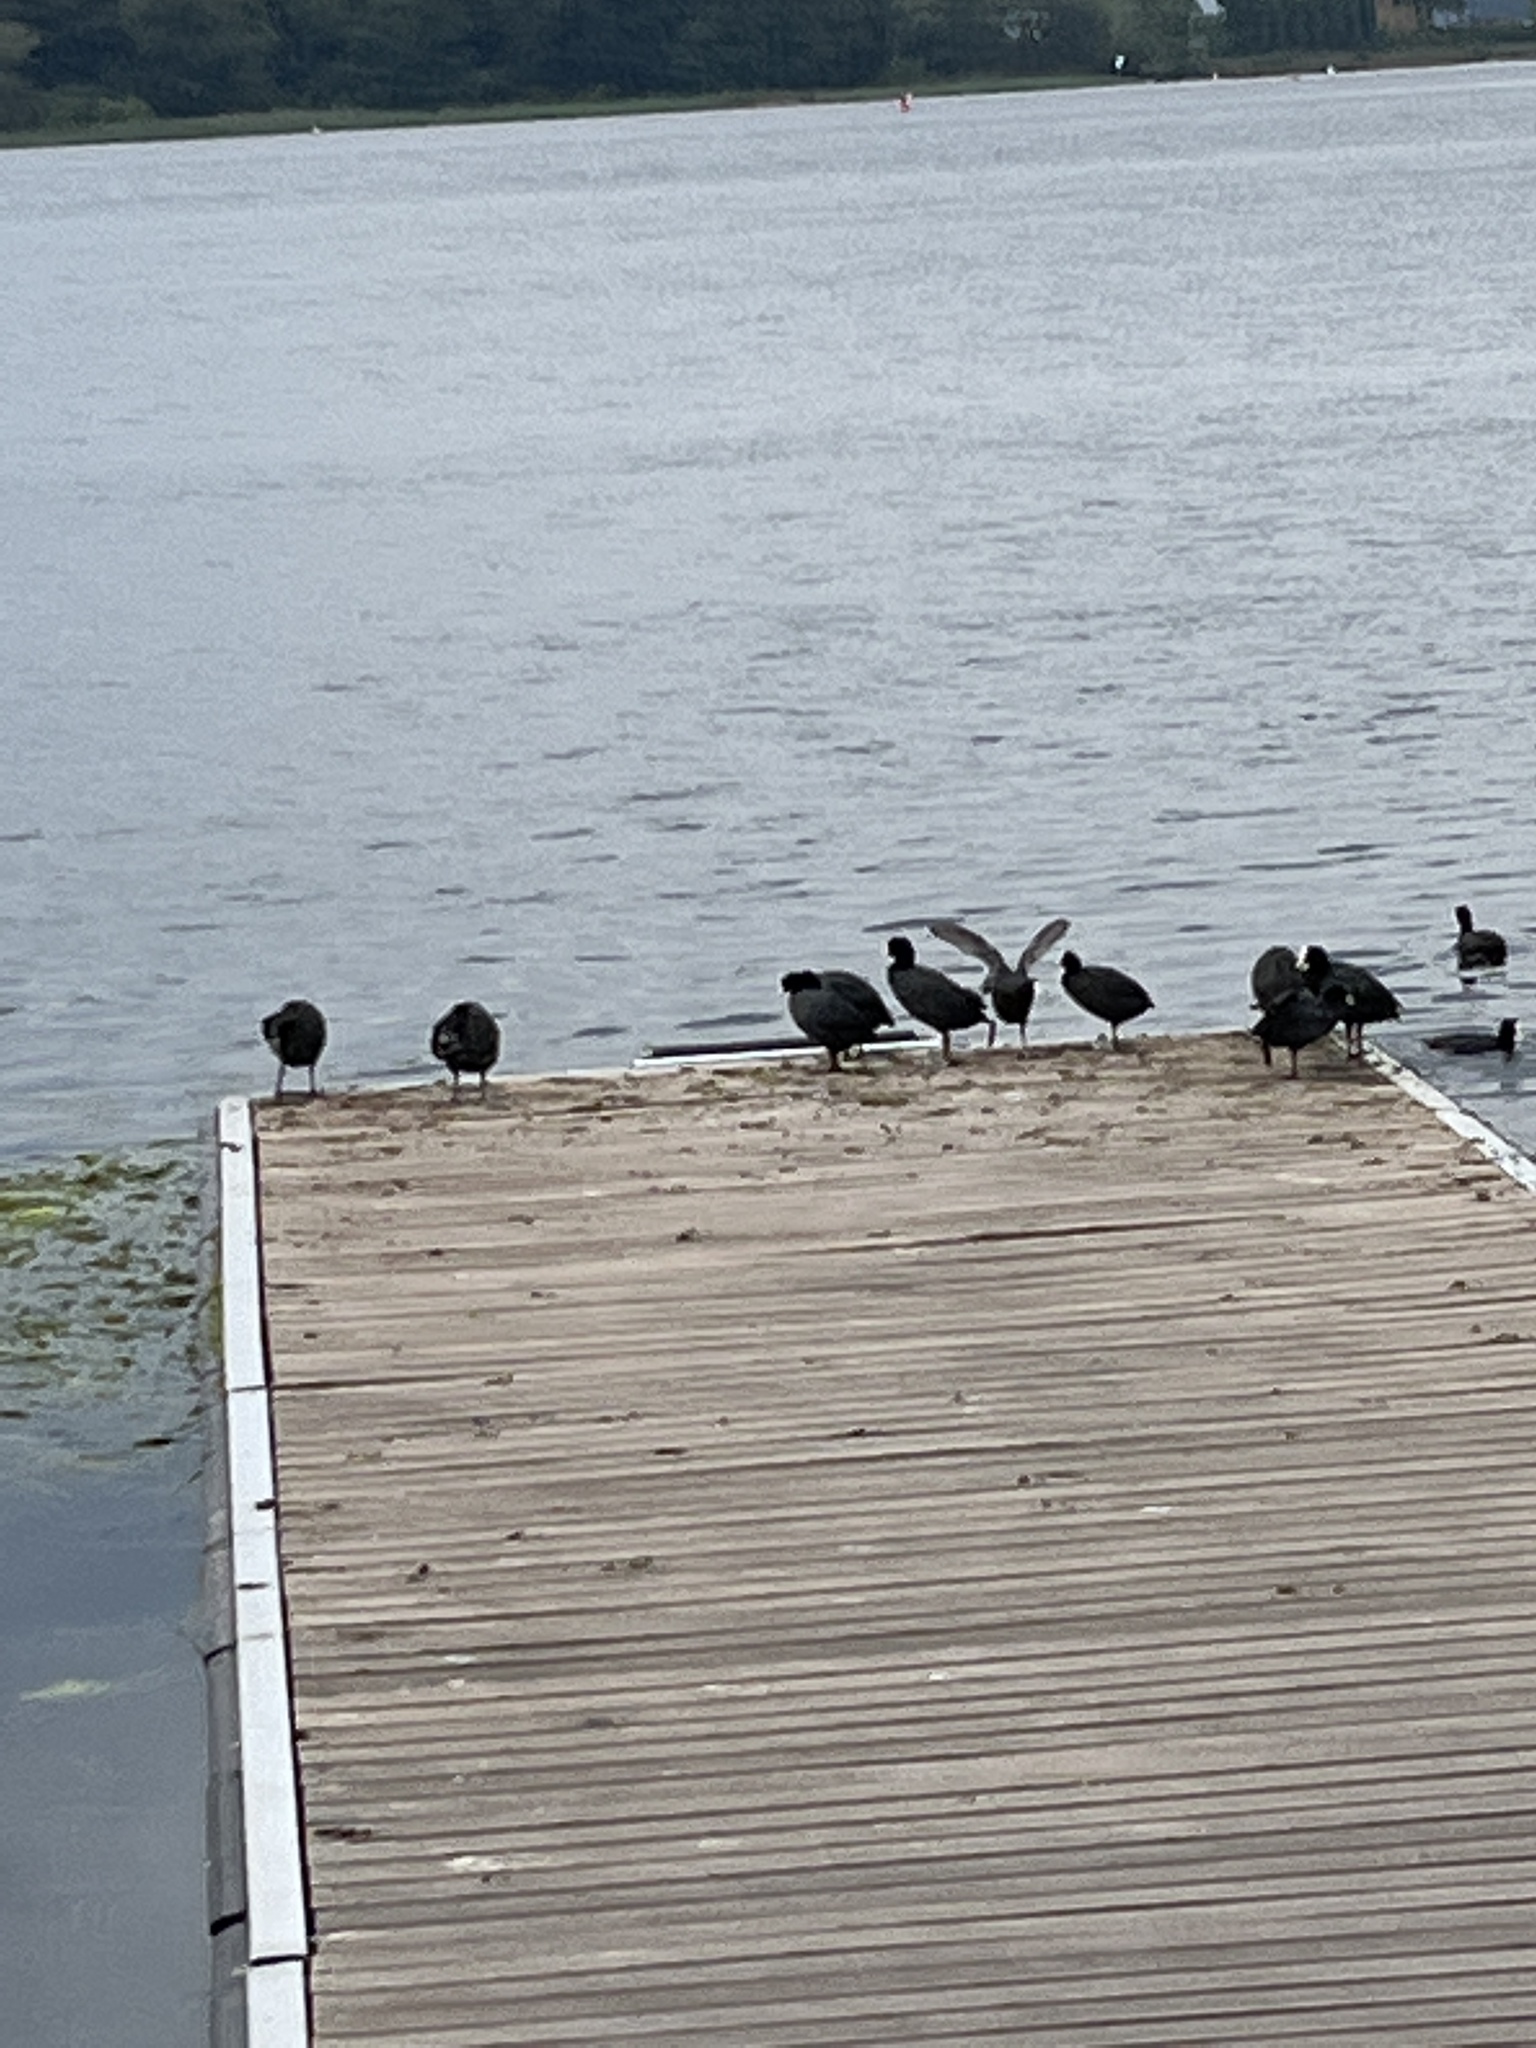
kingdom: Animalia
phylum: Chordata
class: Aves
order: Gruiformes
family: Rallidae
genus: Fulica
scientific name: Fulica atra
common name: Eurasian coot
